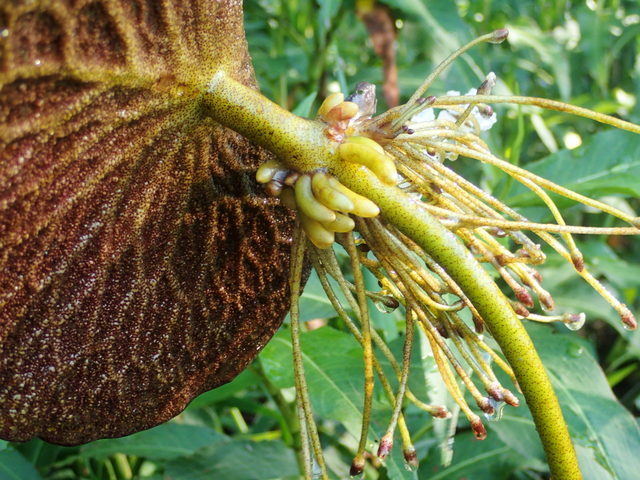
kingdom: Plantae
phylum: Tracheophyta
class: Magnoliopsida
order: Asterales
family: Menyanthaceae
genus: Nymphoides
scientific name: Nymphoides aquatica
